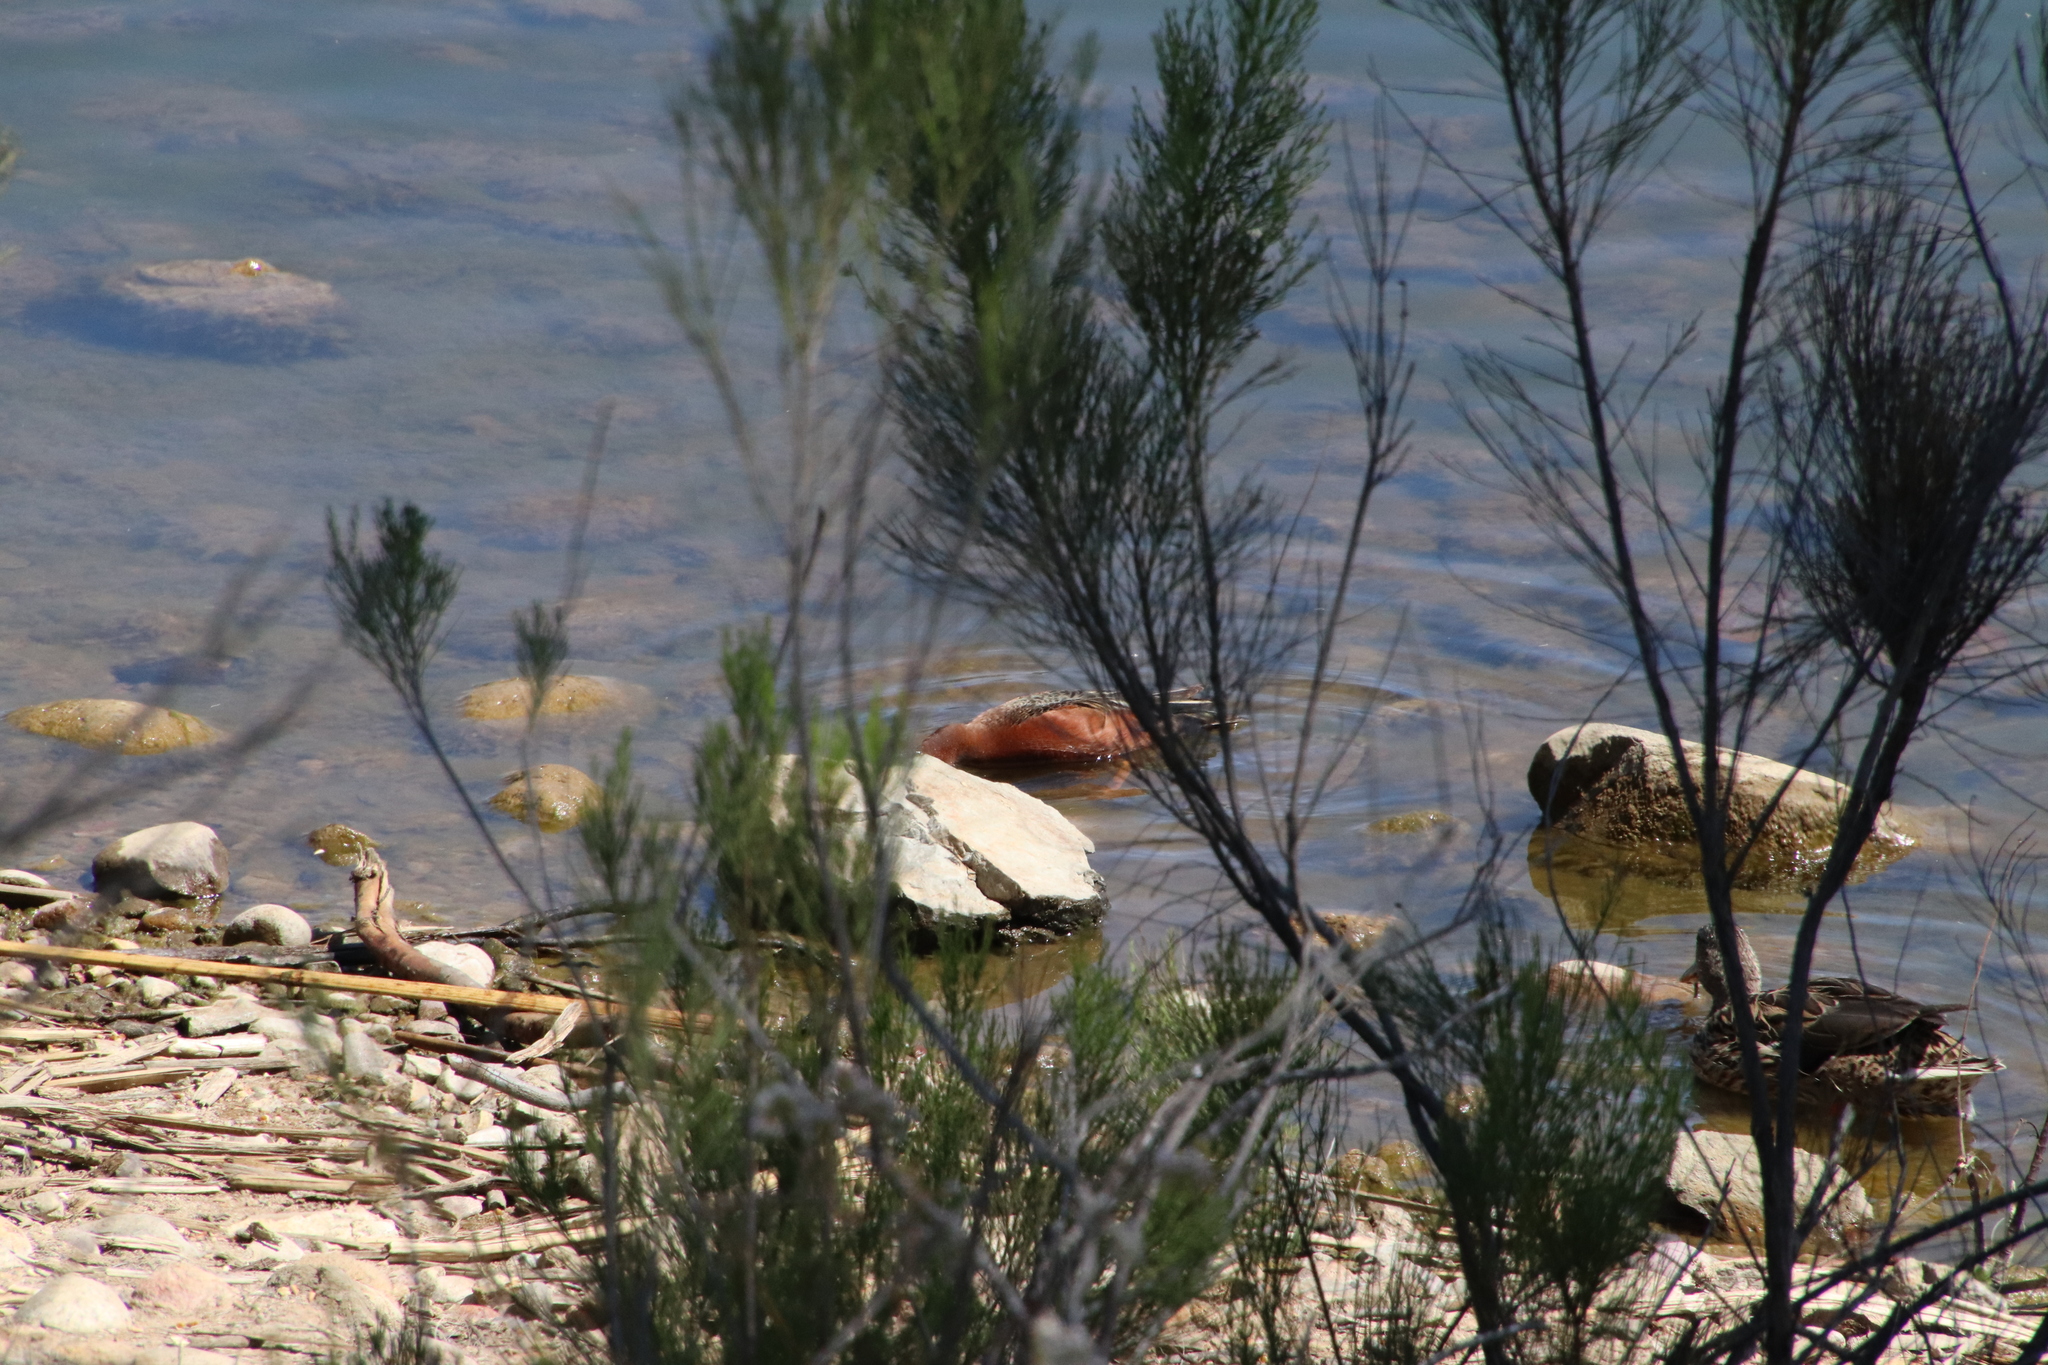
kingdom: Animalia
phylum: Chordata
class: Aves
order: Anseriformes
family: Anatidae
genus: Spatula
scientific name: Spatula cyanoptera
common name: Cinnamon teal
